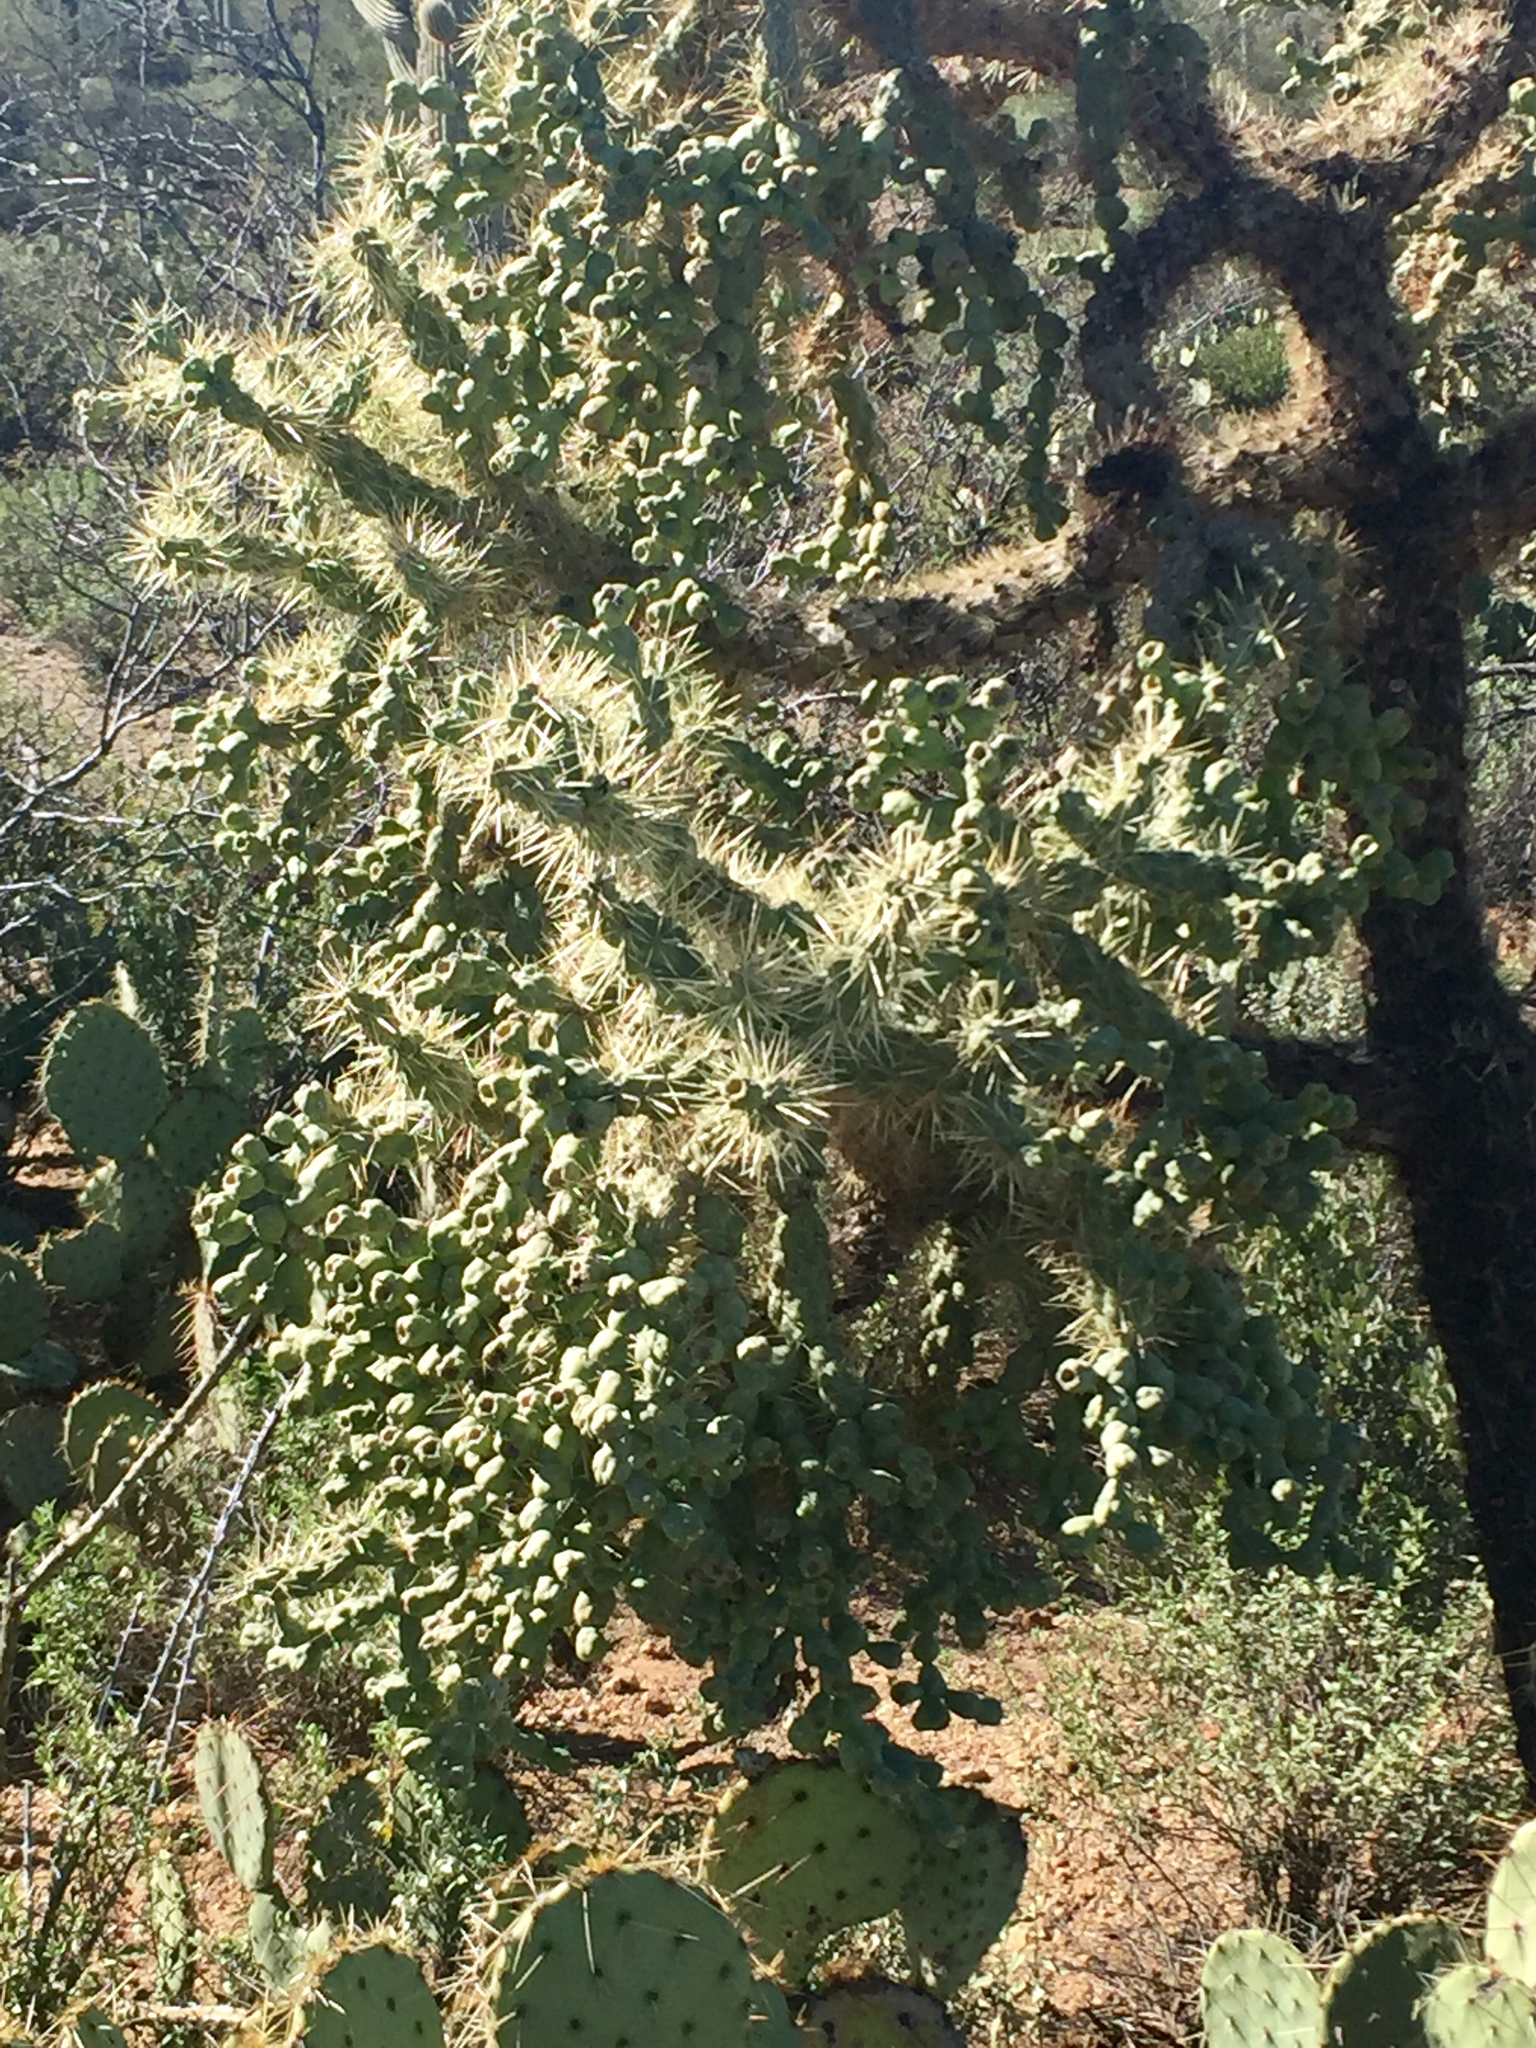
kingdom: Plantae
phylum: Tracheophyta
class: Magnoliopsida
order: Caryophyllales
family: Cactaceae
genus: Cylindropuntia
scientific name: Cylindropuntia fulgida
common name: Jumping cholla
